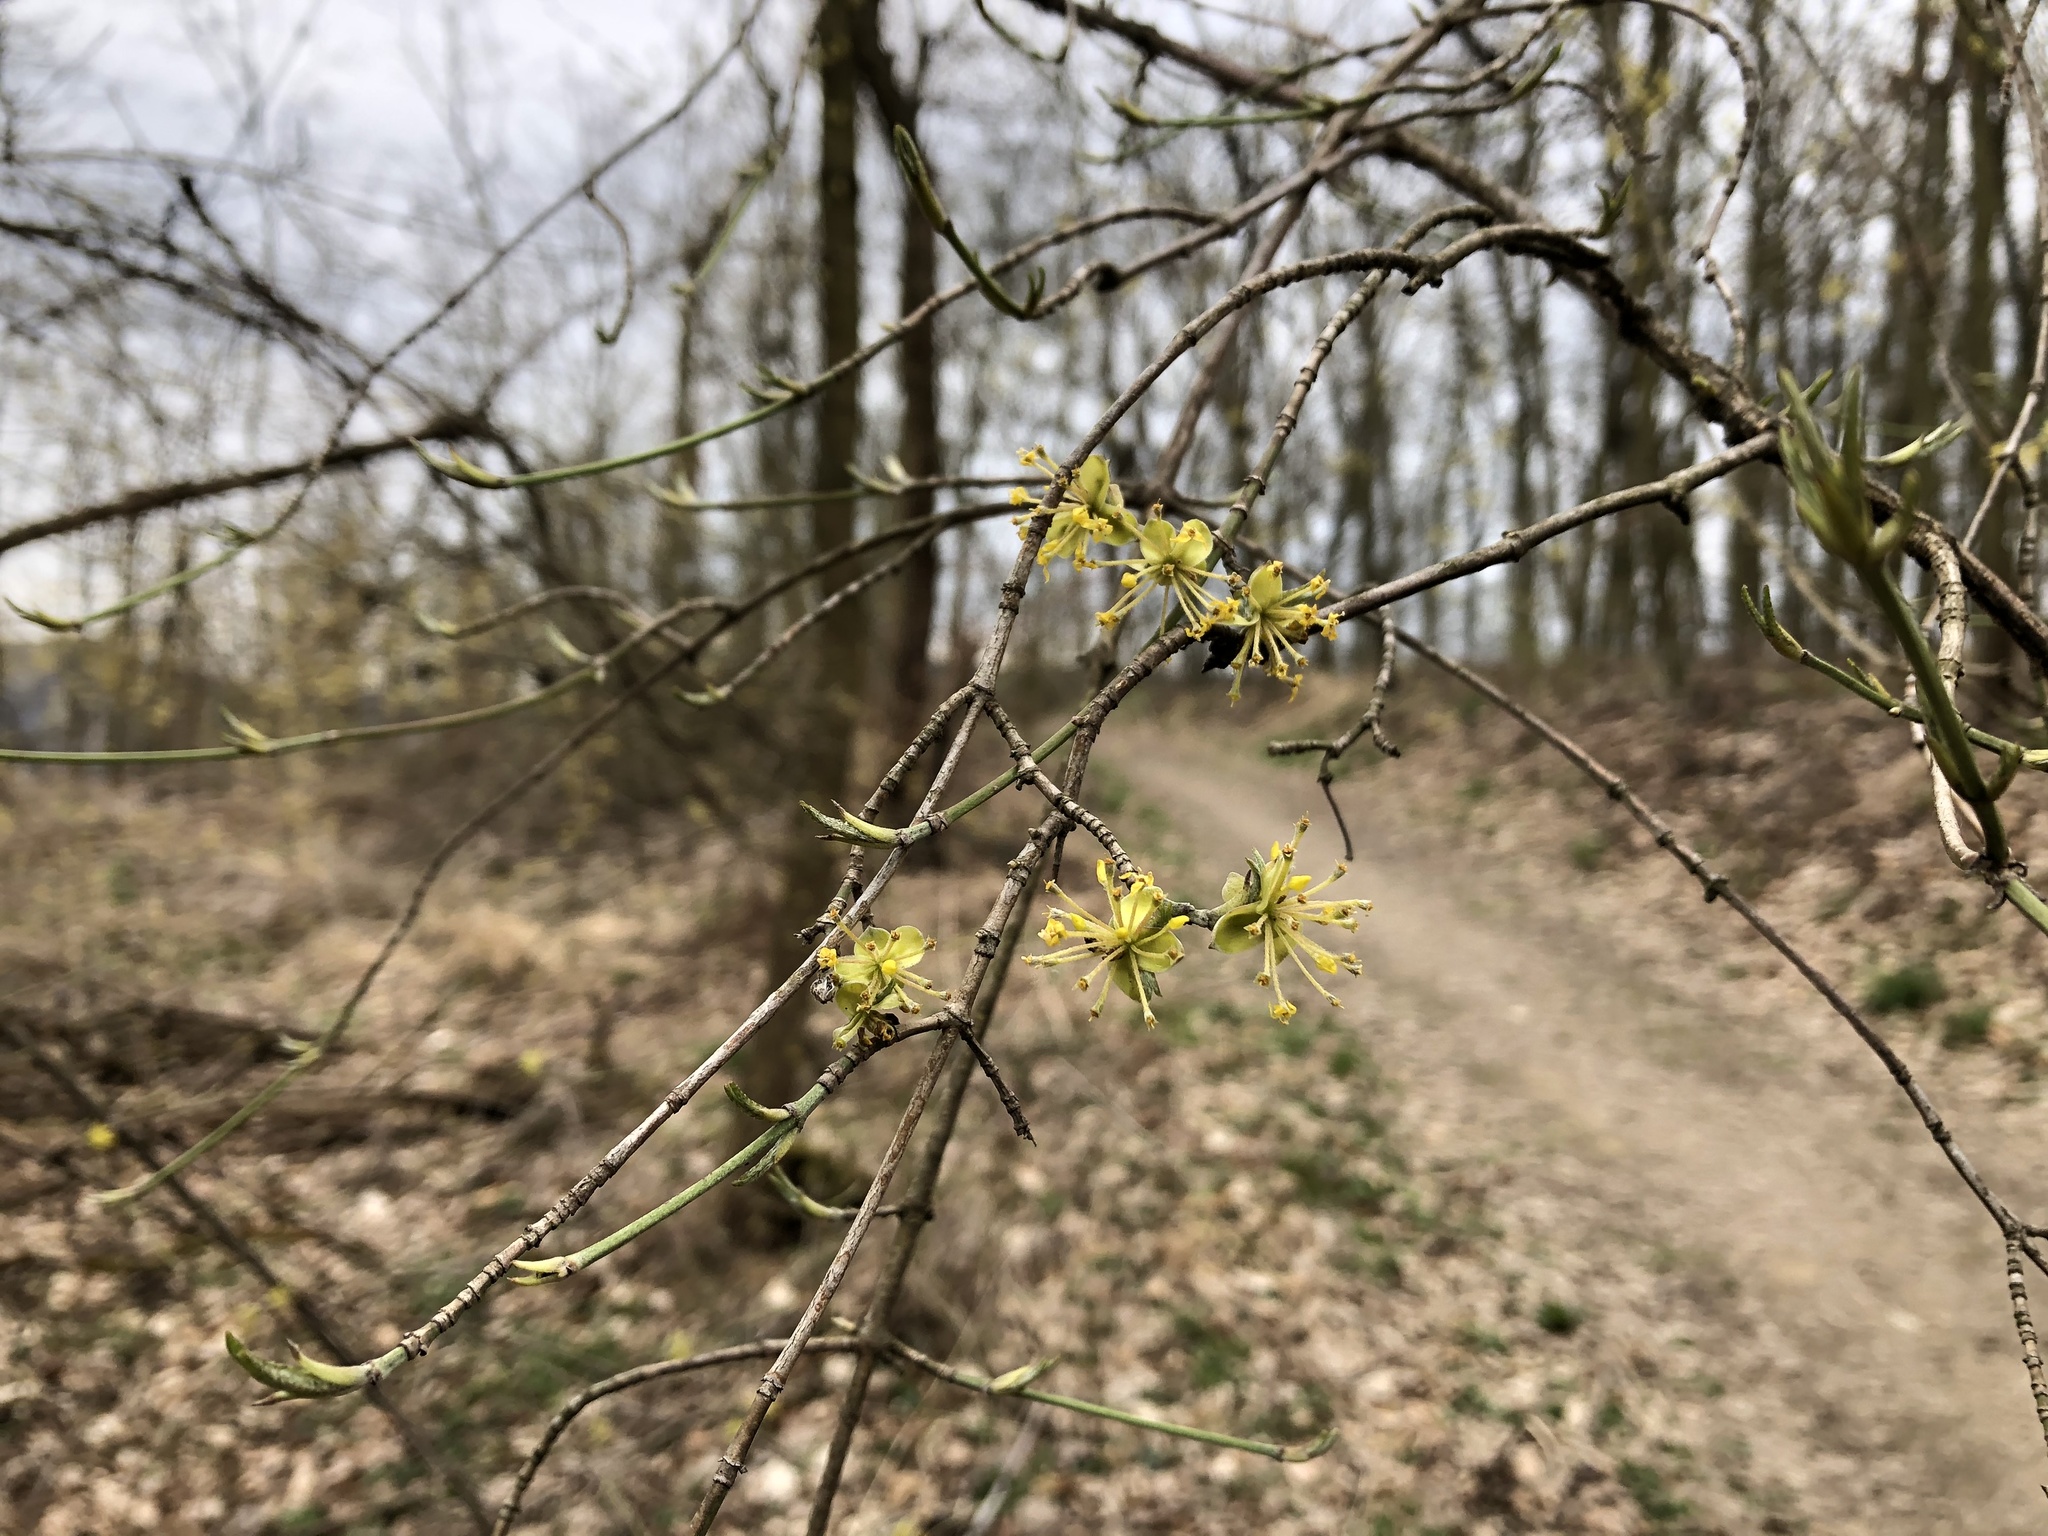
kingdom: Plantae
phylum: Tracheophyta
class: Magnoliopsida
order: Cornales
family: Cornaceae
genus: Cornus
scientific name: Cornus mas
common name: Cornelian-cherry
